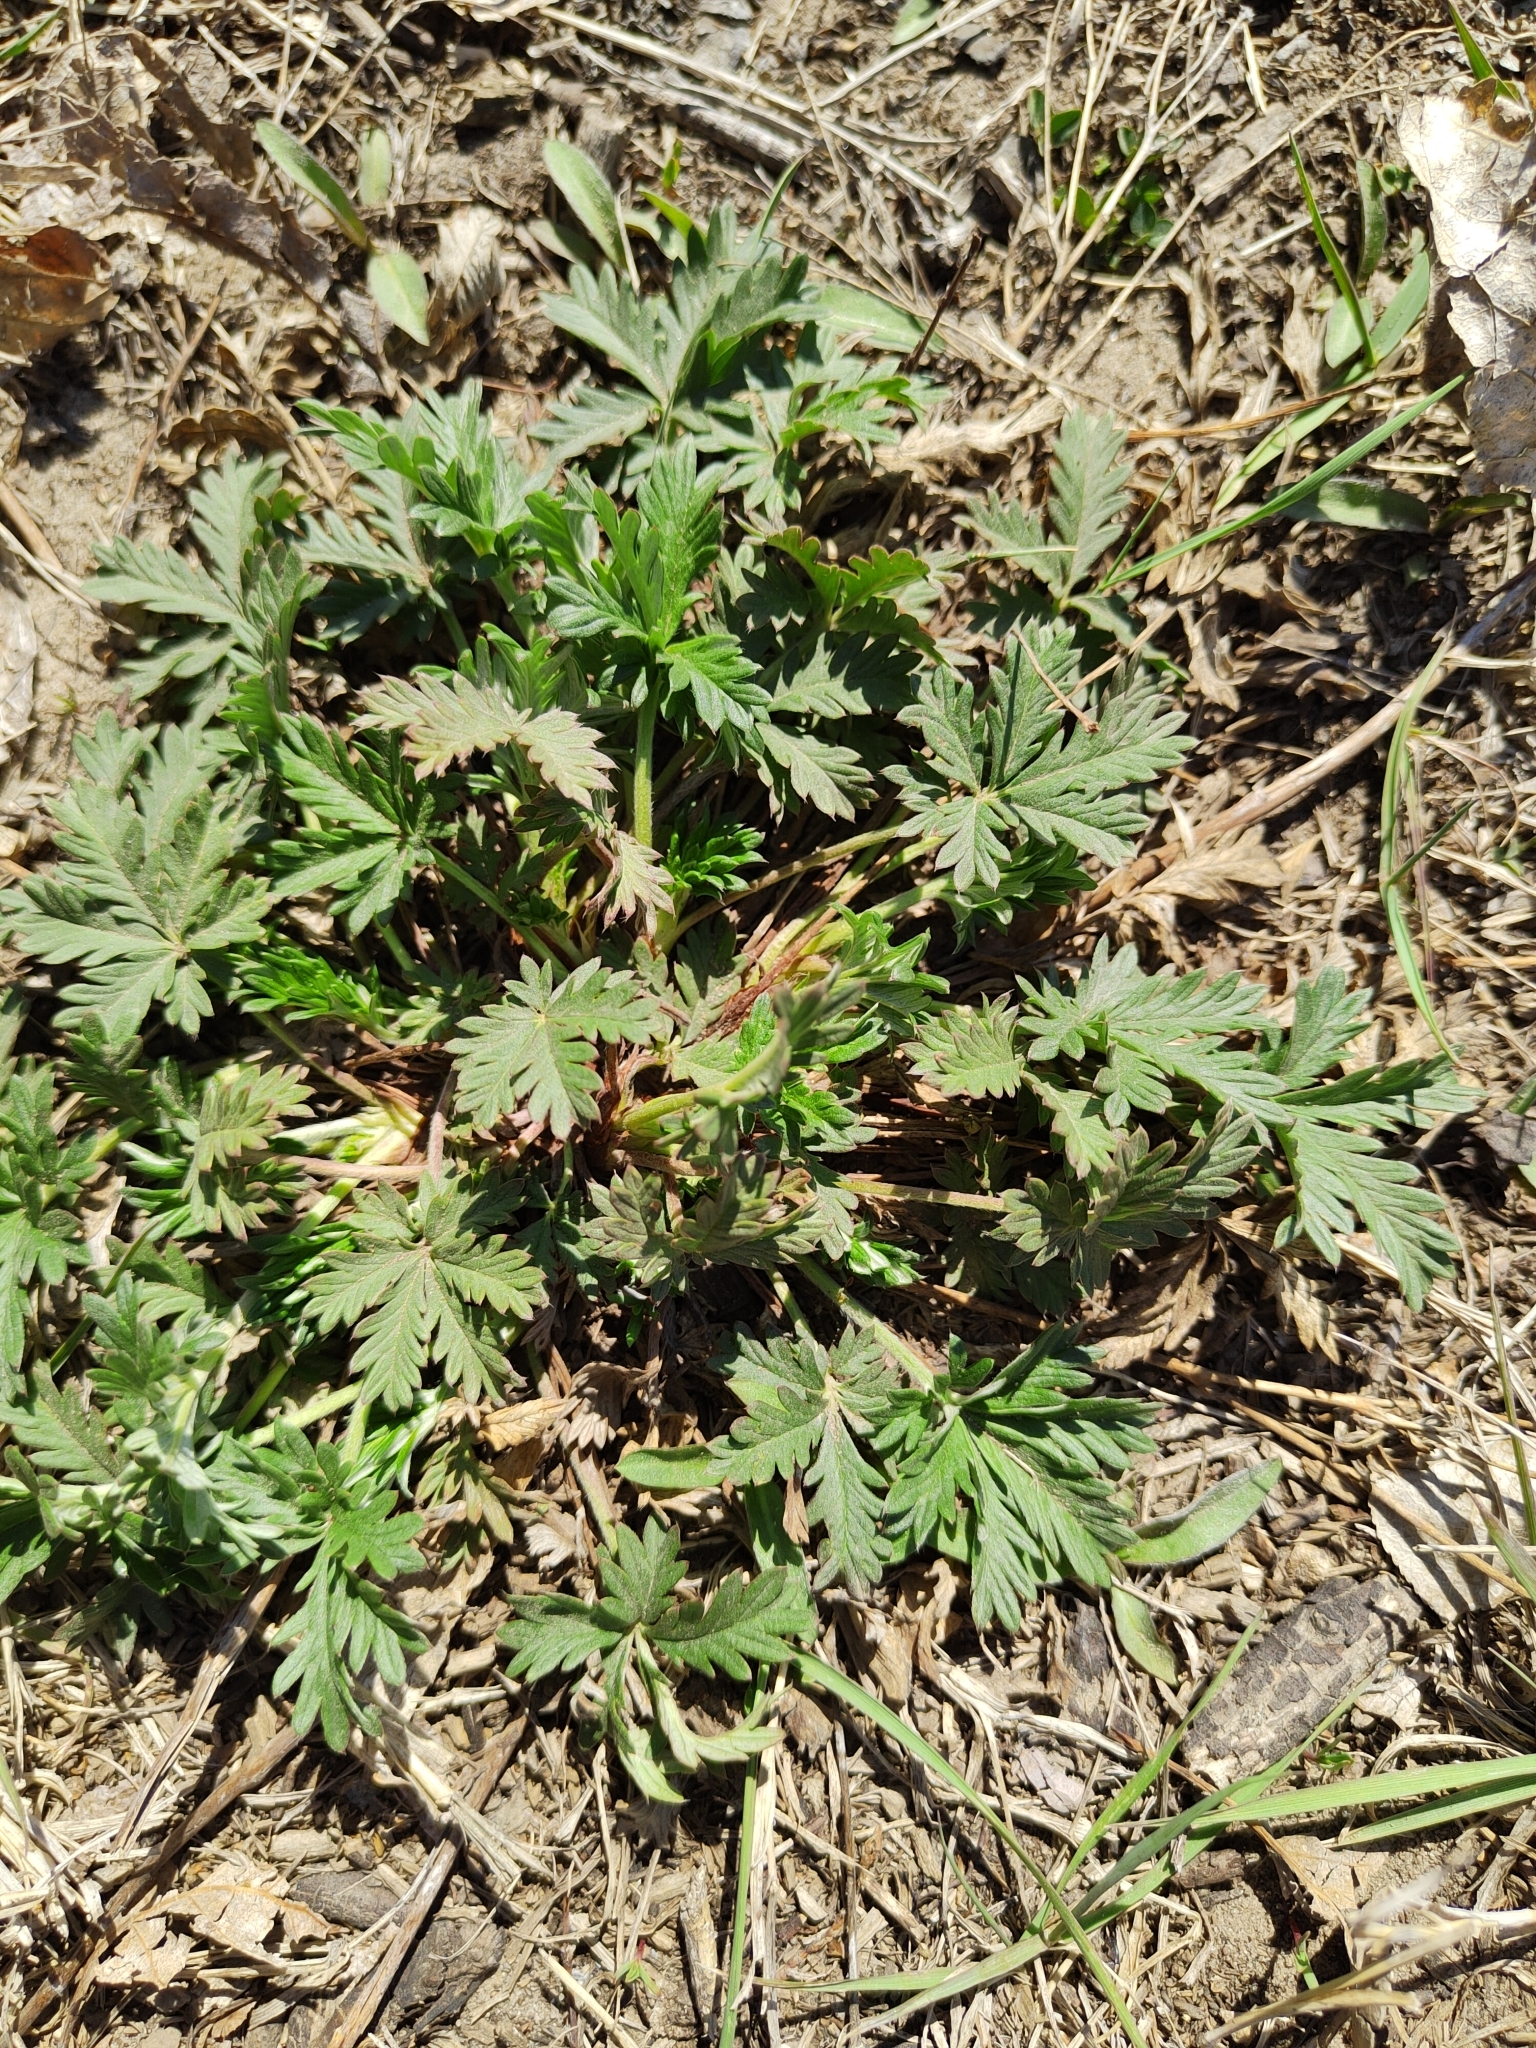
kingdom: Plantae
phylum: Tracheophyta
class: Magnoliopsida
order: Rosales
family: Rosaceae
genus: Potentilla
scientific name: Potentilla argentea
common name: Hoary cinquefoil
